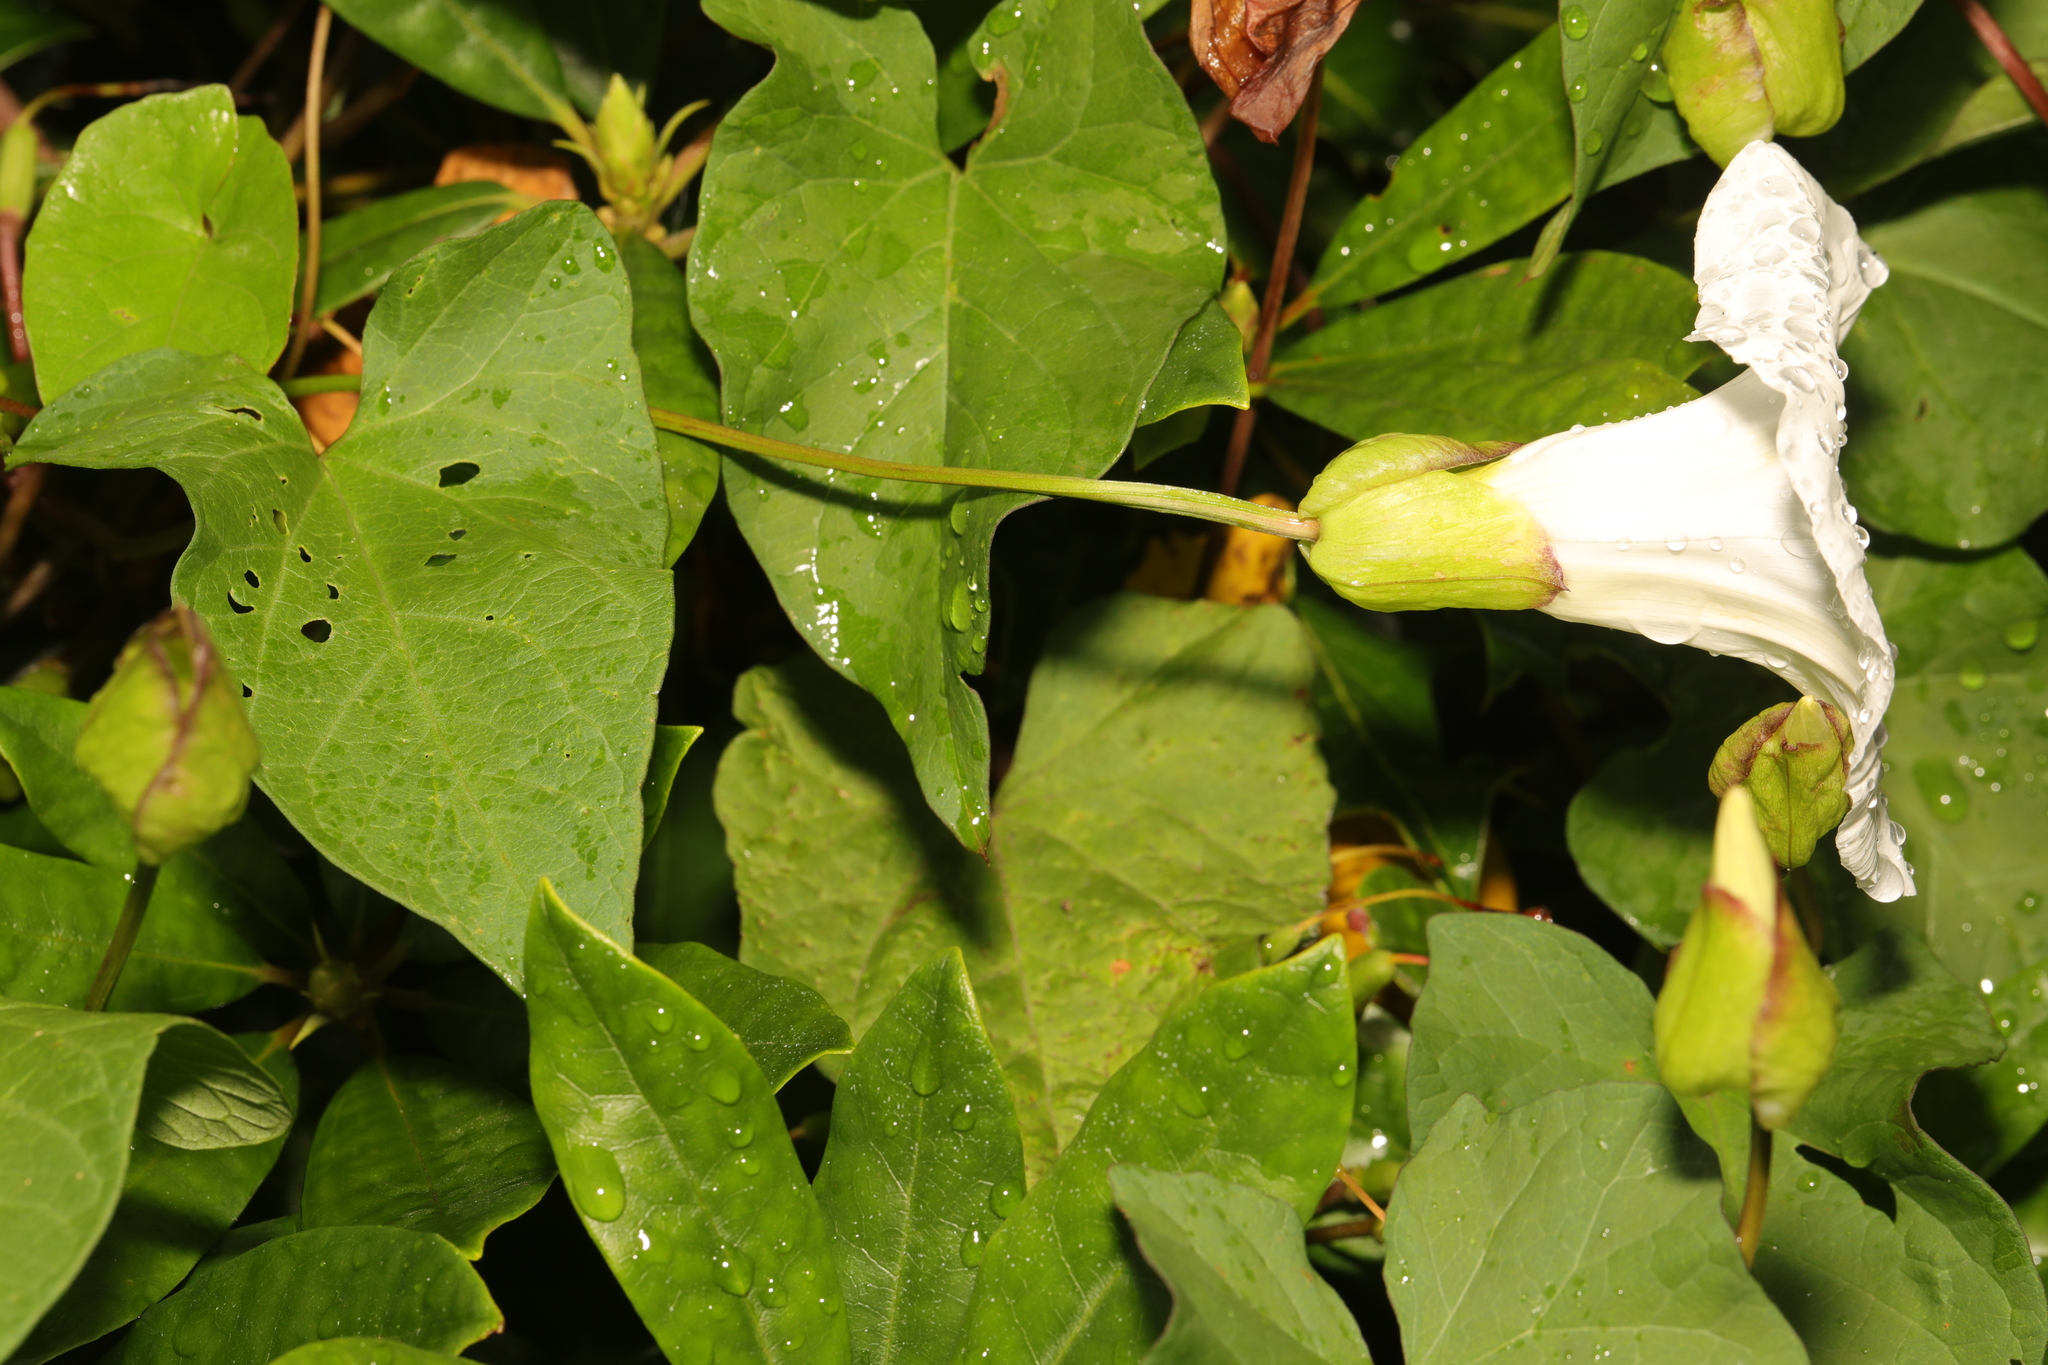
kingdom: Plantae
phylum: Tracheophyta
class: Magnoliopsida
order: Solanales
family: Convolvulaceae
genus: Calystegia
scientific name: Calystegia silvatica
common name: Large bindweed
